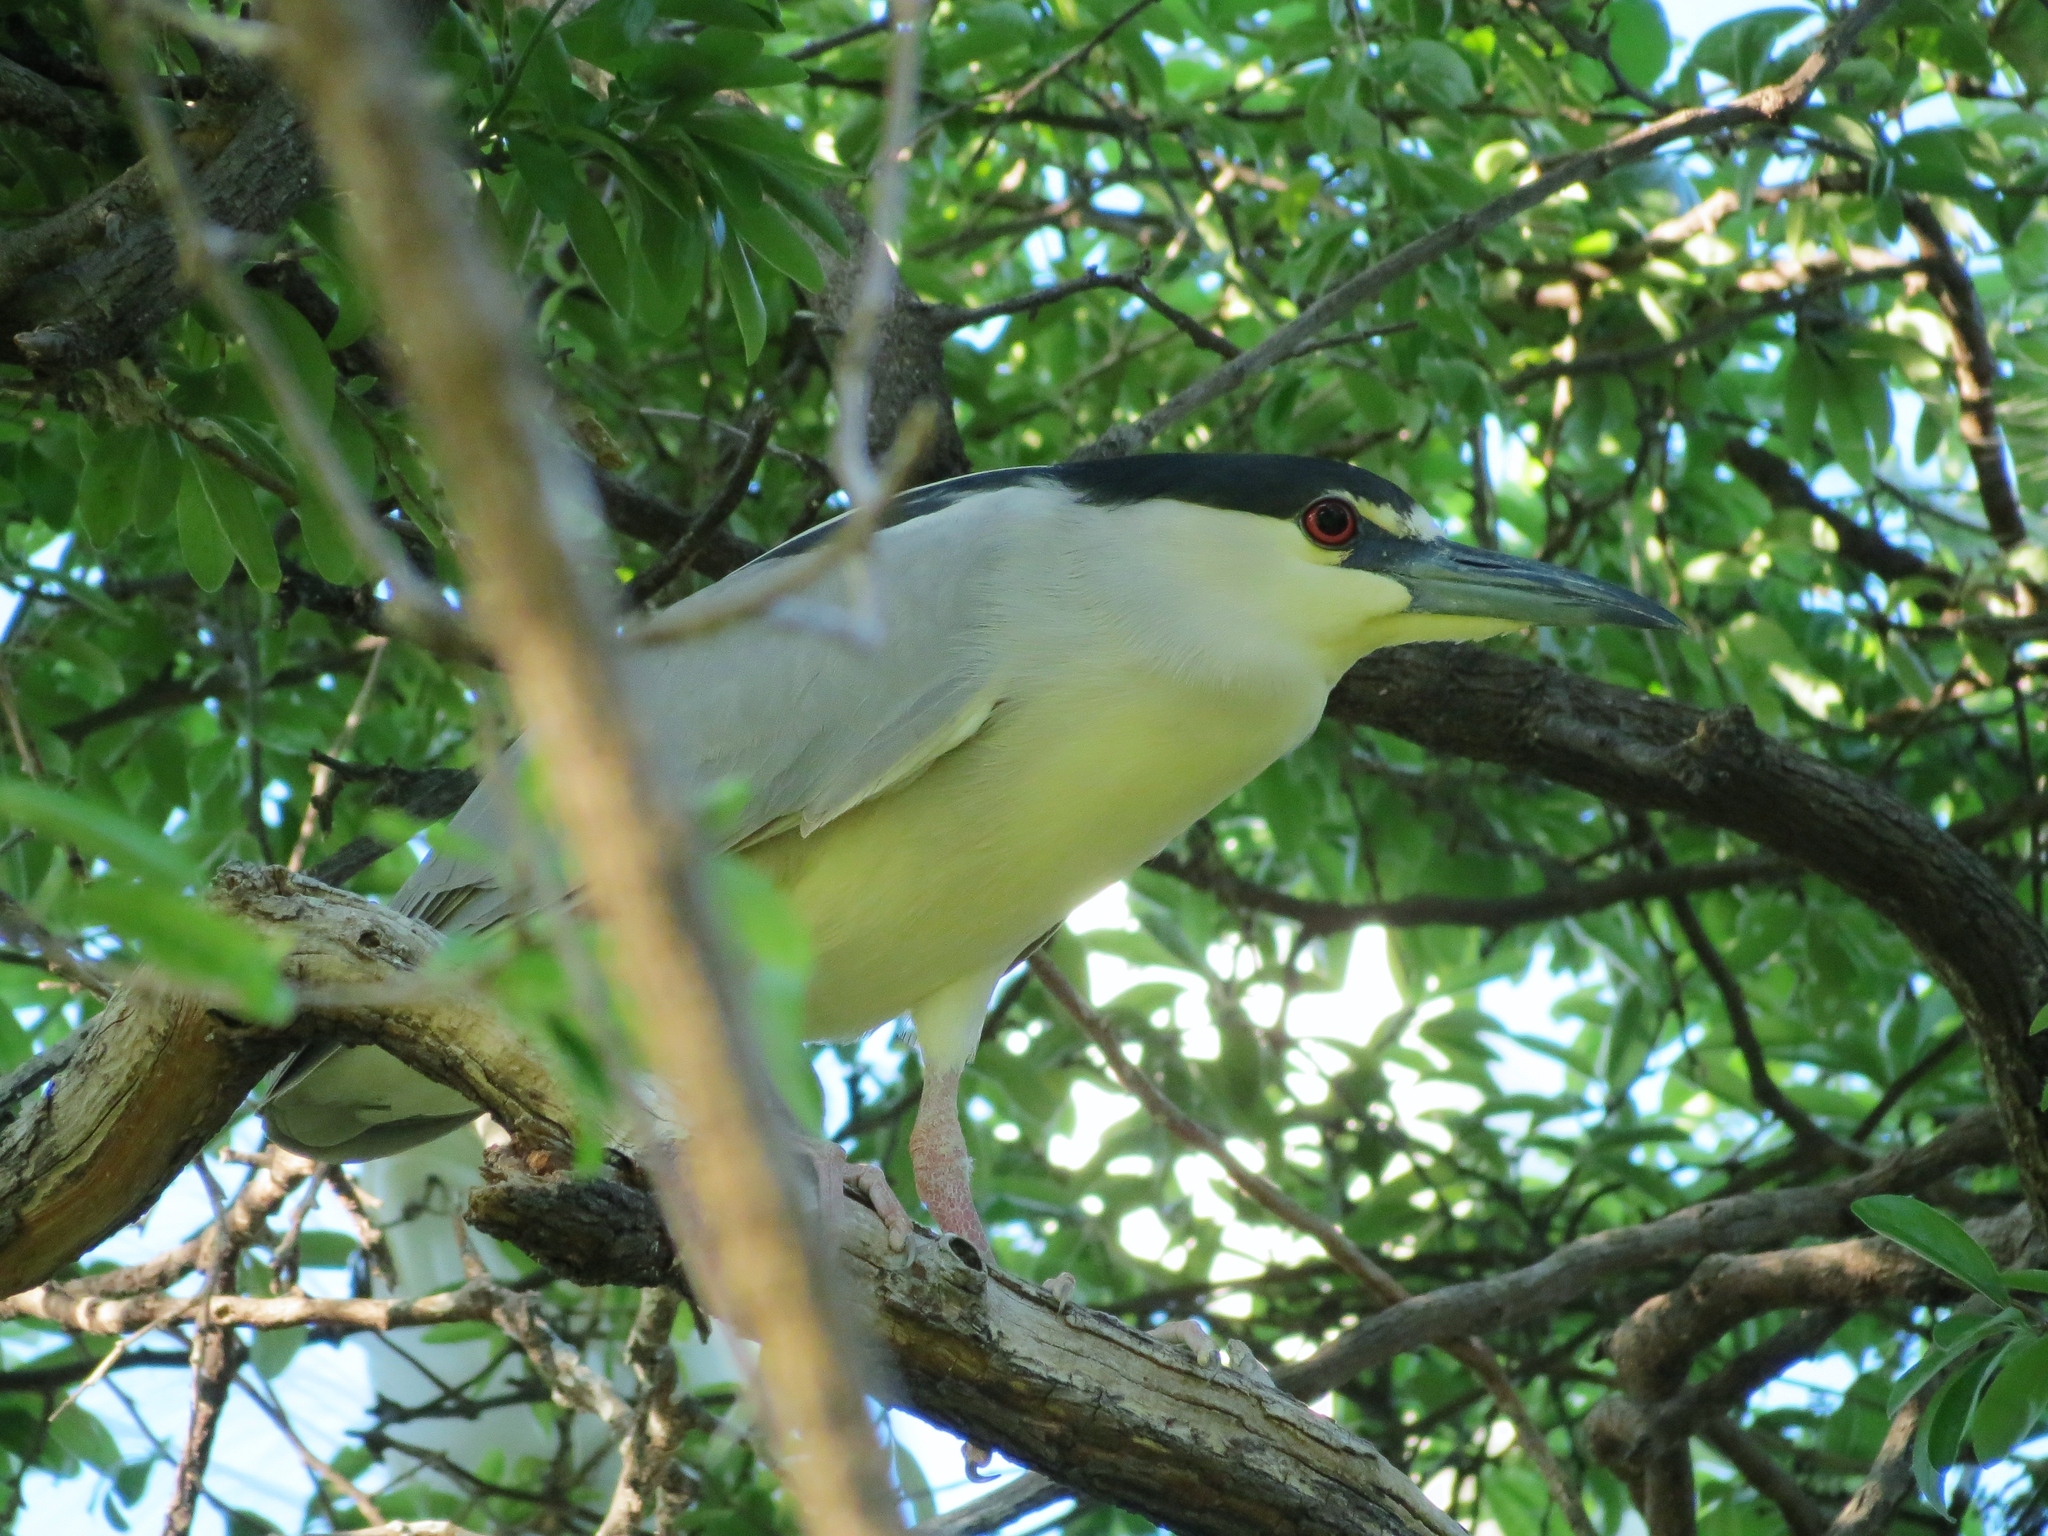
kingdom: Animalia
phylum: Chordata
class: Aves
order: Pelecaniformes
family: Ardeidae
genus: Nycticorax
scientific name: Nycticorax nycticorax
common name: Black-crowned night heron
